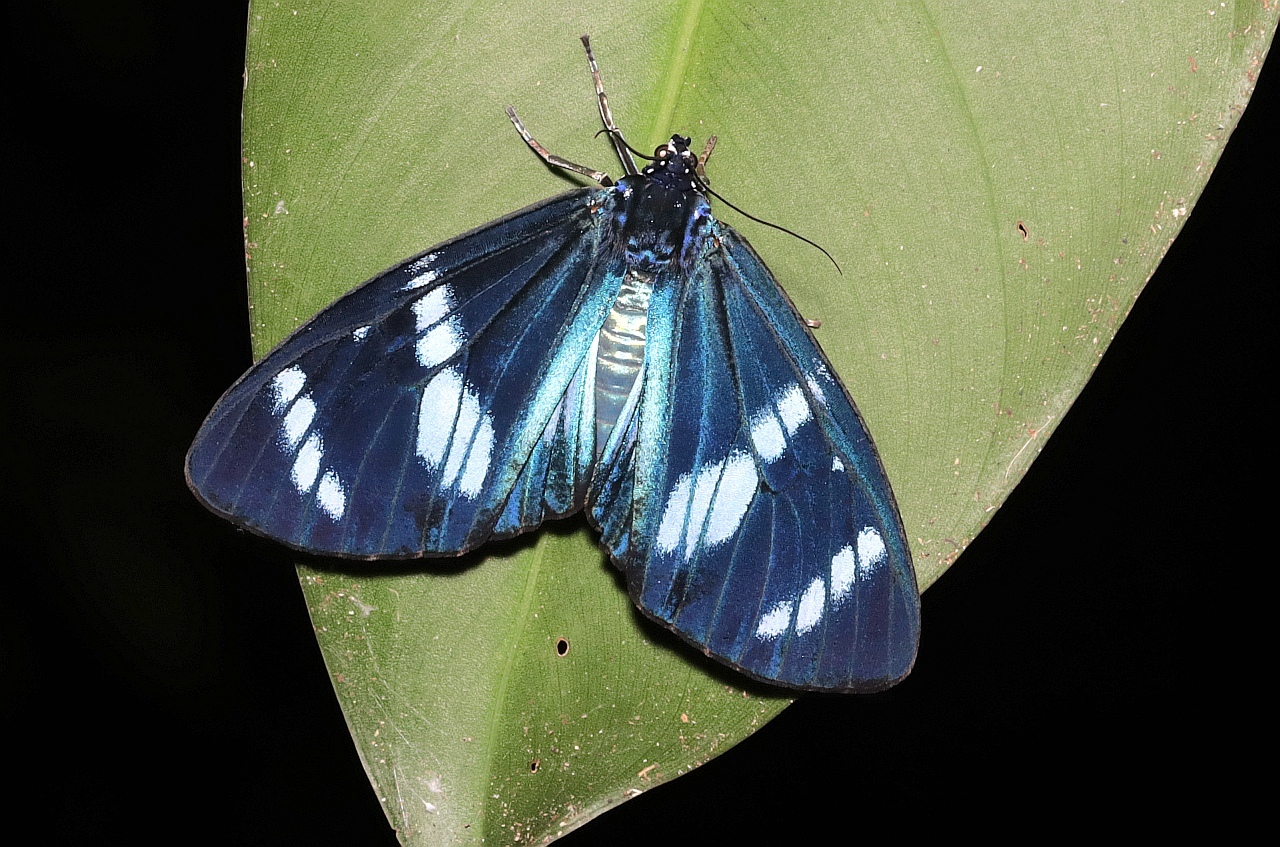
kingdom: Animalia
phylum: Arthropoda
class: Insecta
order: Lepidoptera
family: Erebidae
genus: Hypocrita
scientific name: Hypocrita plagifera
